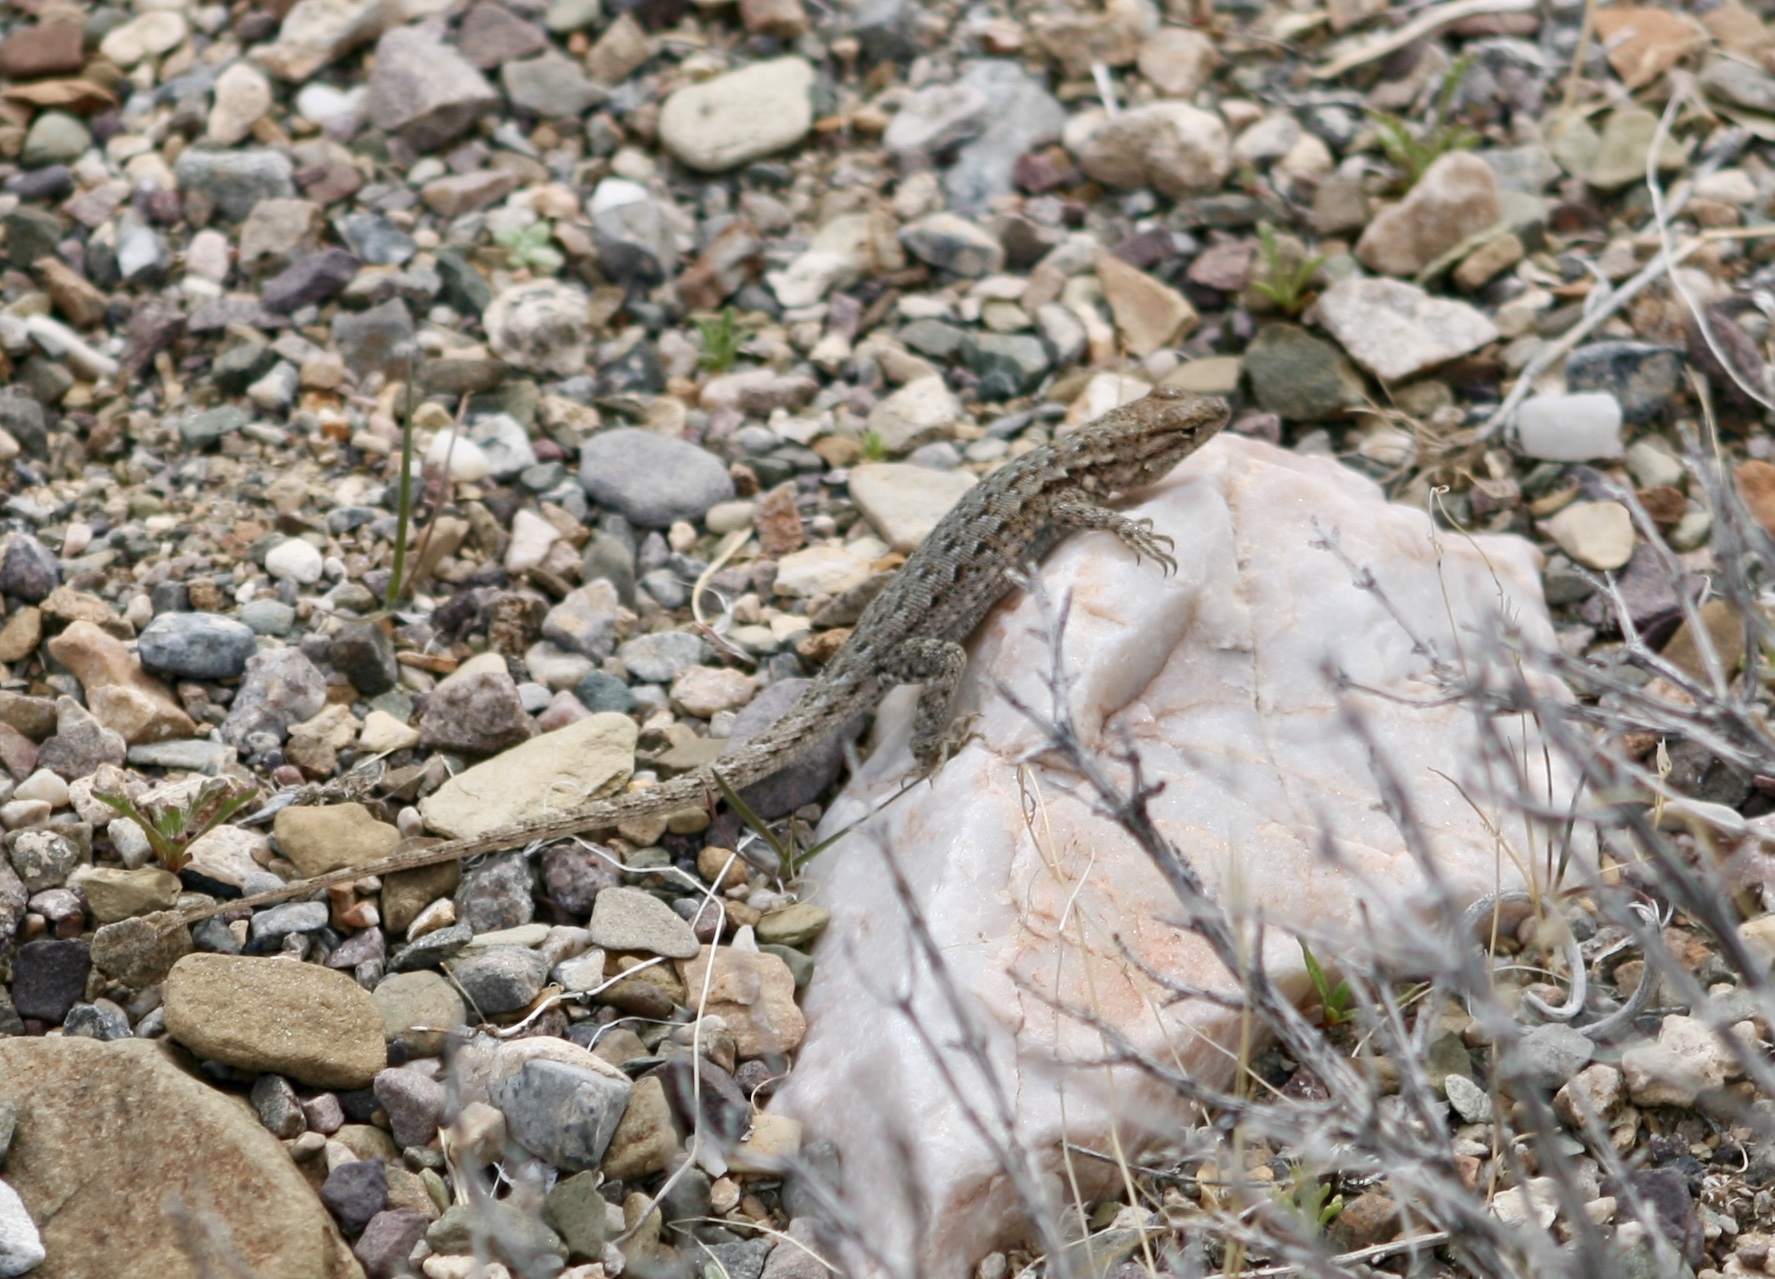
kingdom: Animalia
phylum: Chordata
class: Squamata
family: Phrynosomatidae
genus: Uta
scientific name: Uta stansburiana
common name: Side-blotched lizard
